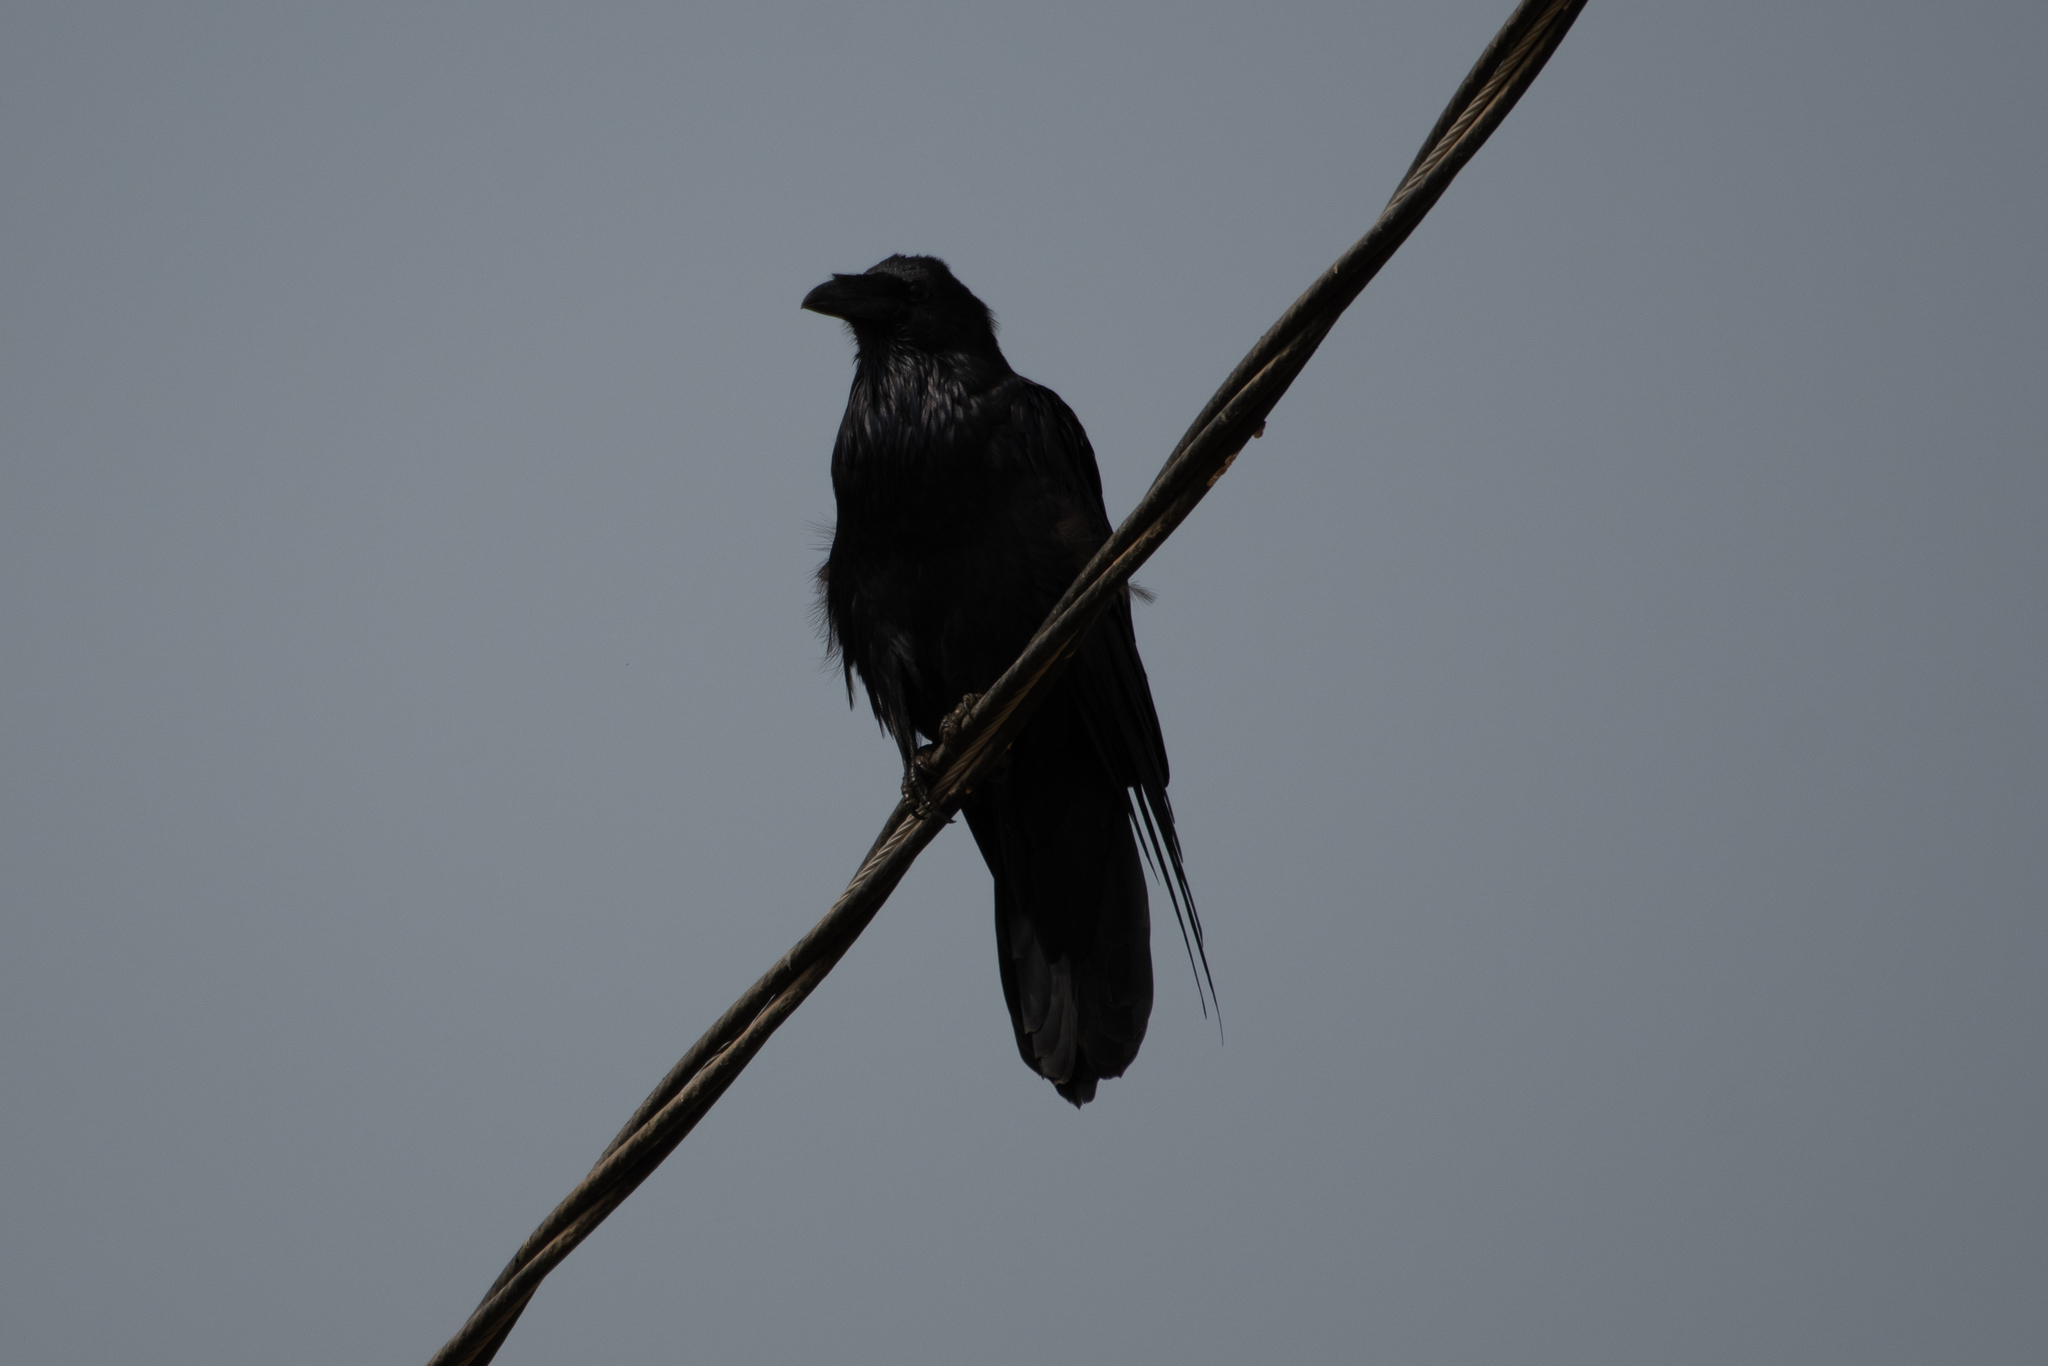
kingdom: Animalia
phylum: Chordata
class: Aves
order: Passeriformes
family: Corvidae
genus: Corvus
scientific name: Corvus corax
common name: Common raven
